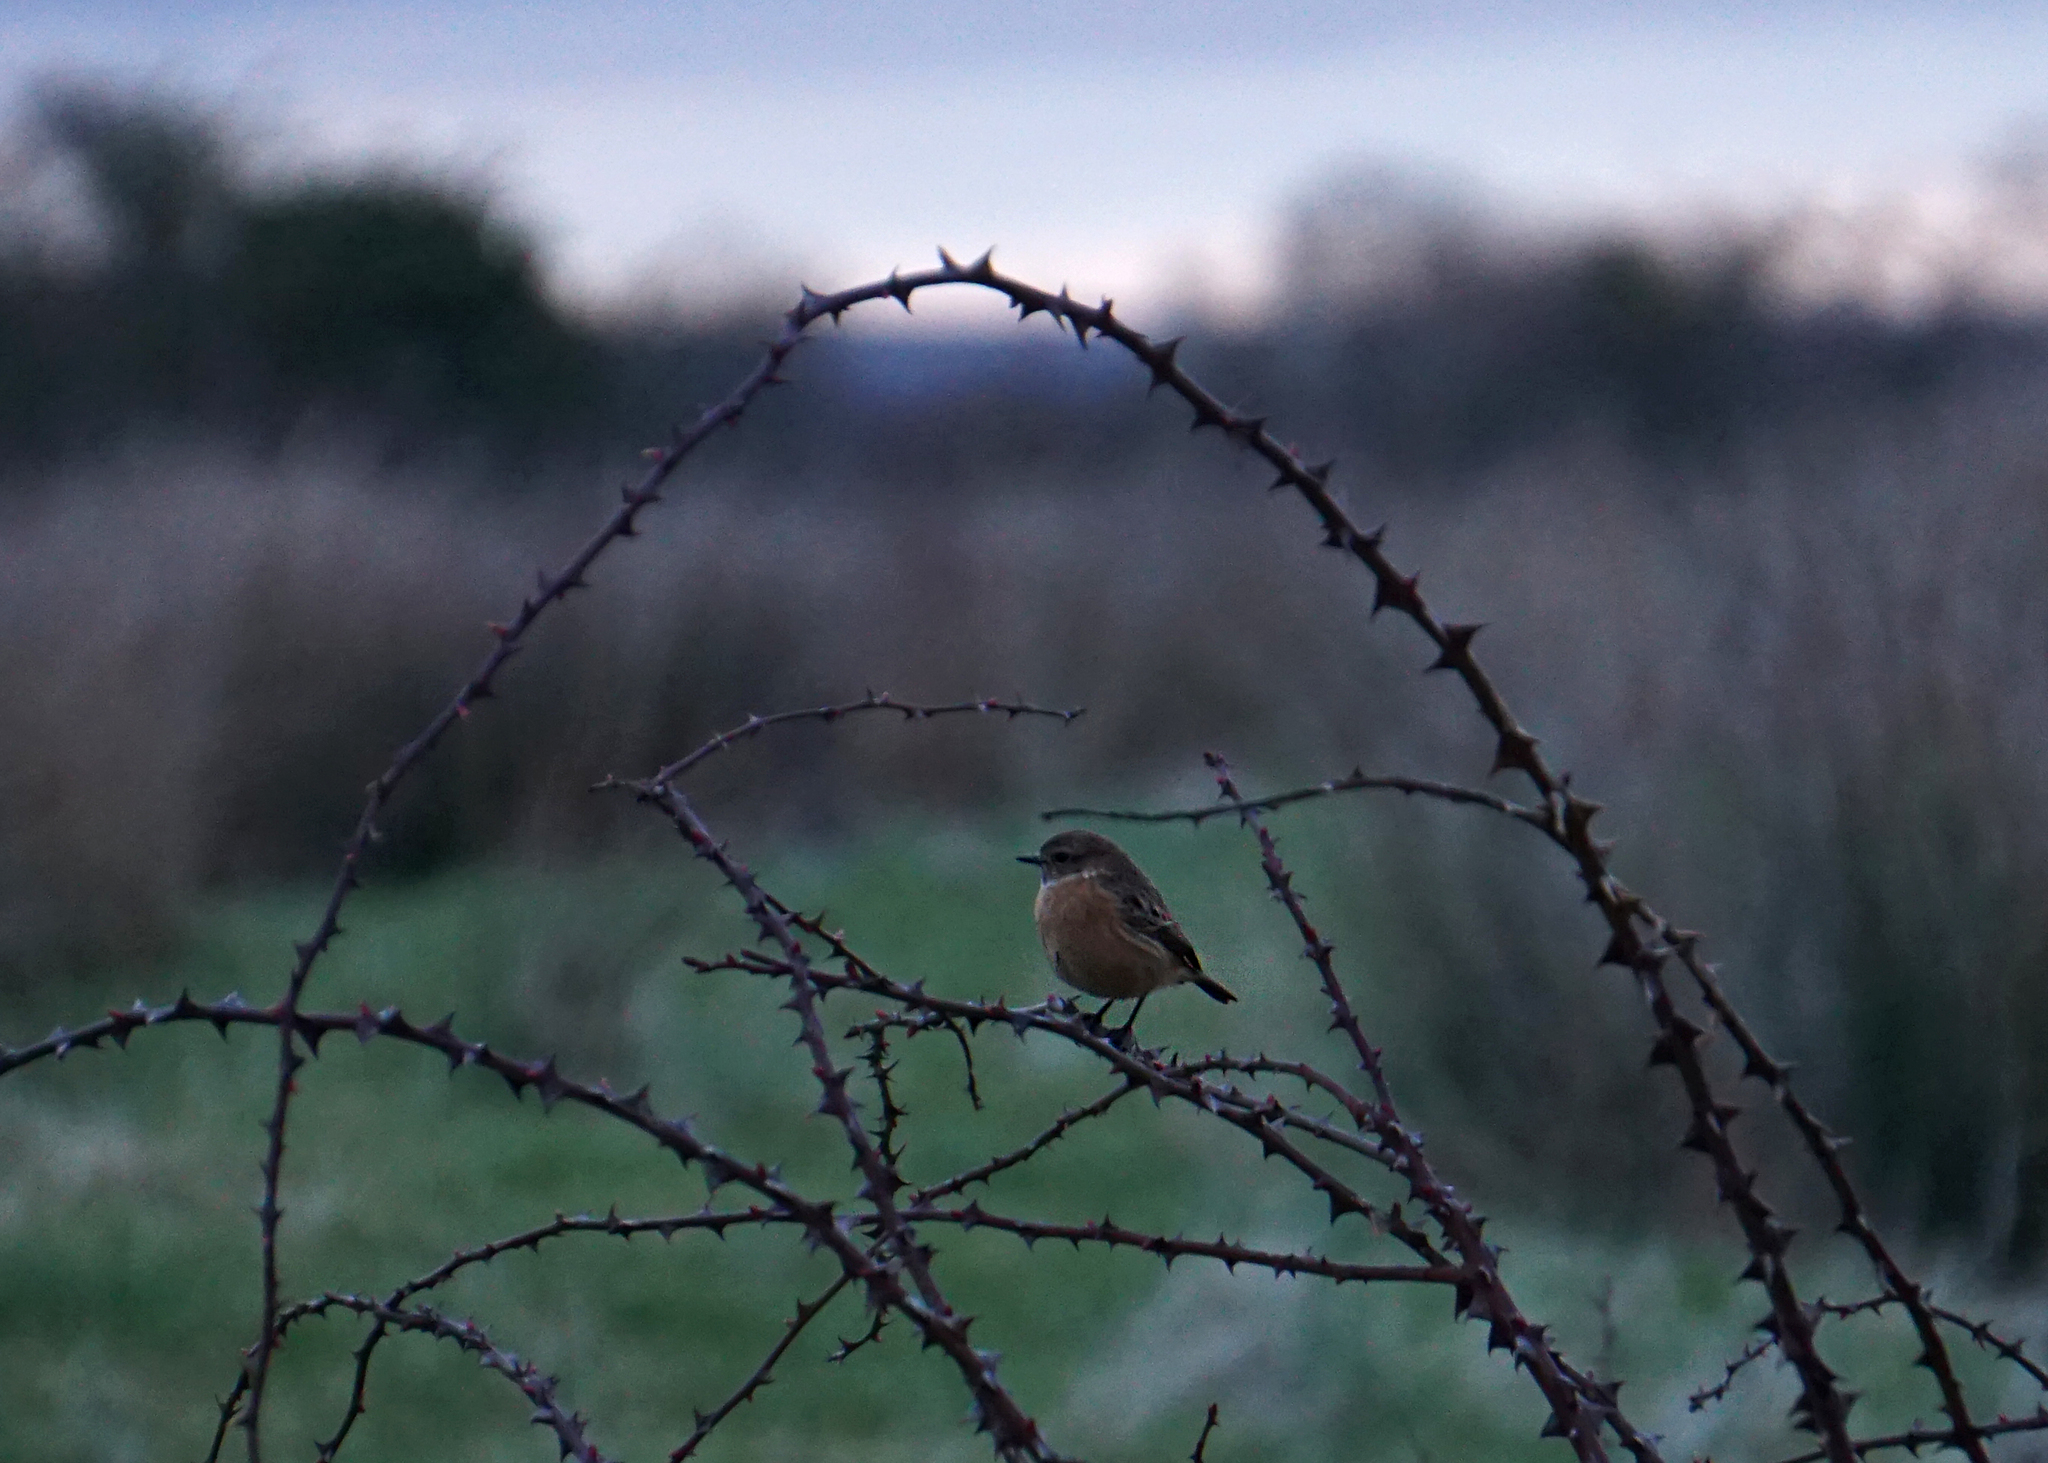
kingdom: Animalia
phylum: Chordata
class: Aves
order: Passeriformes
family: Muscicapidae
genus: Saxicola
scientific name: Saxicola rubicola
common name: European stonechat
